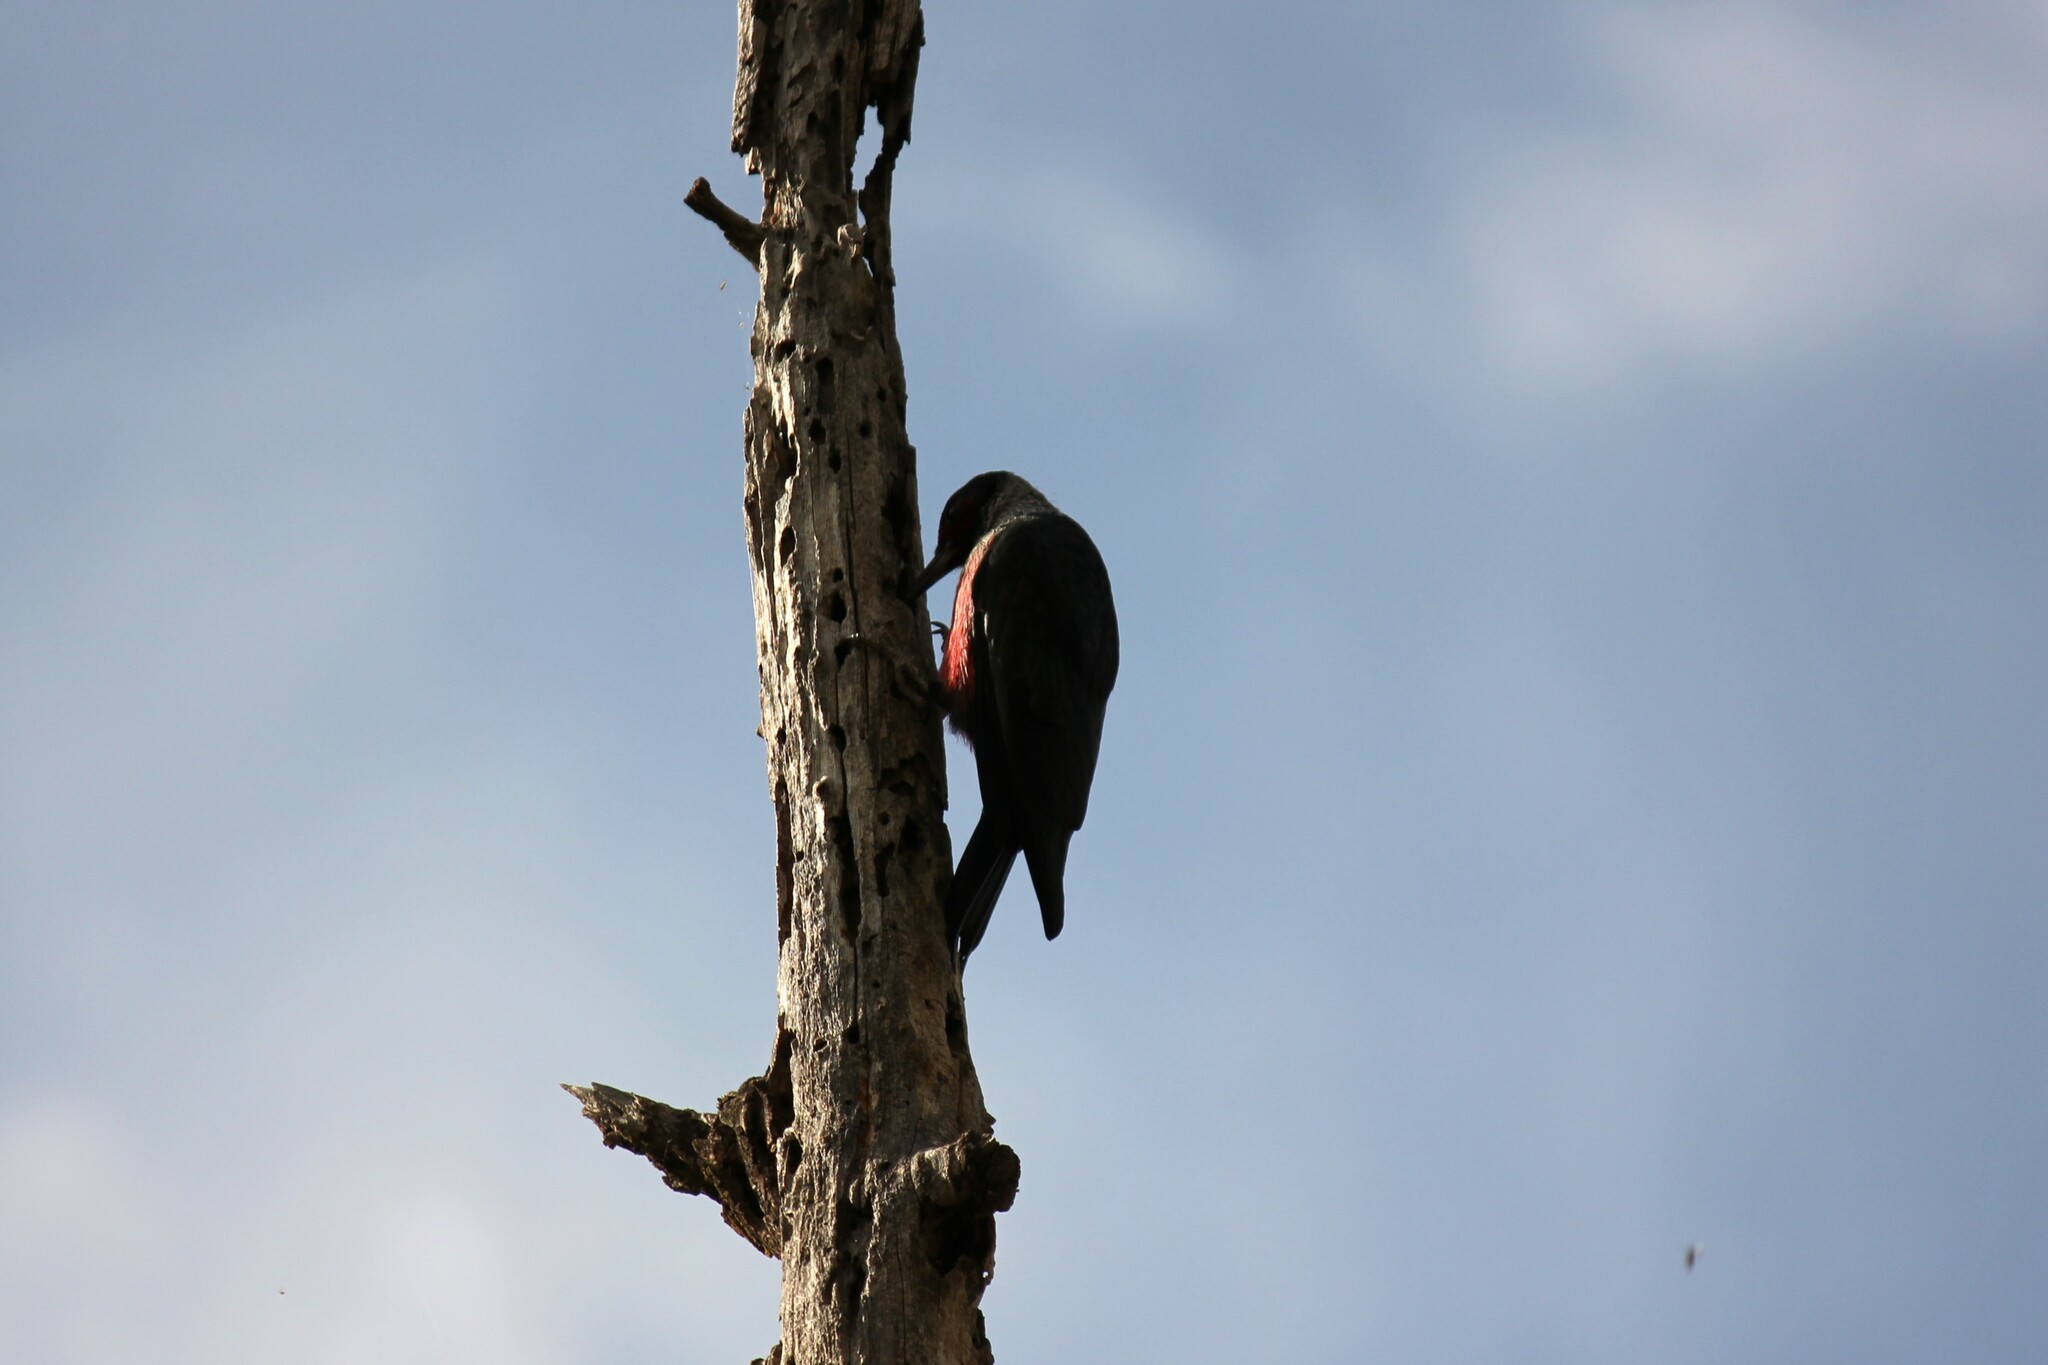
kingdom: Animalia
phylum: Chordata
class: Aves
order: Piciformes
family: Picidae
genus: Melanerpes
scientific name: Melanerpes lewis
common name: Lewis's woodpecker
